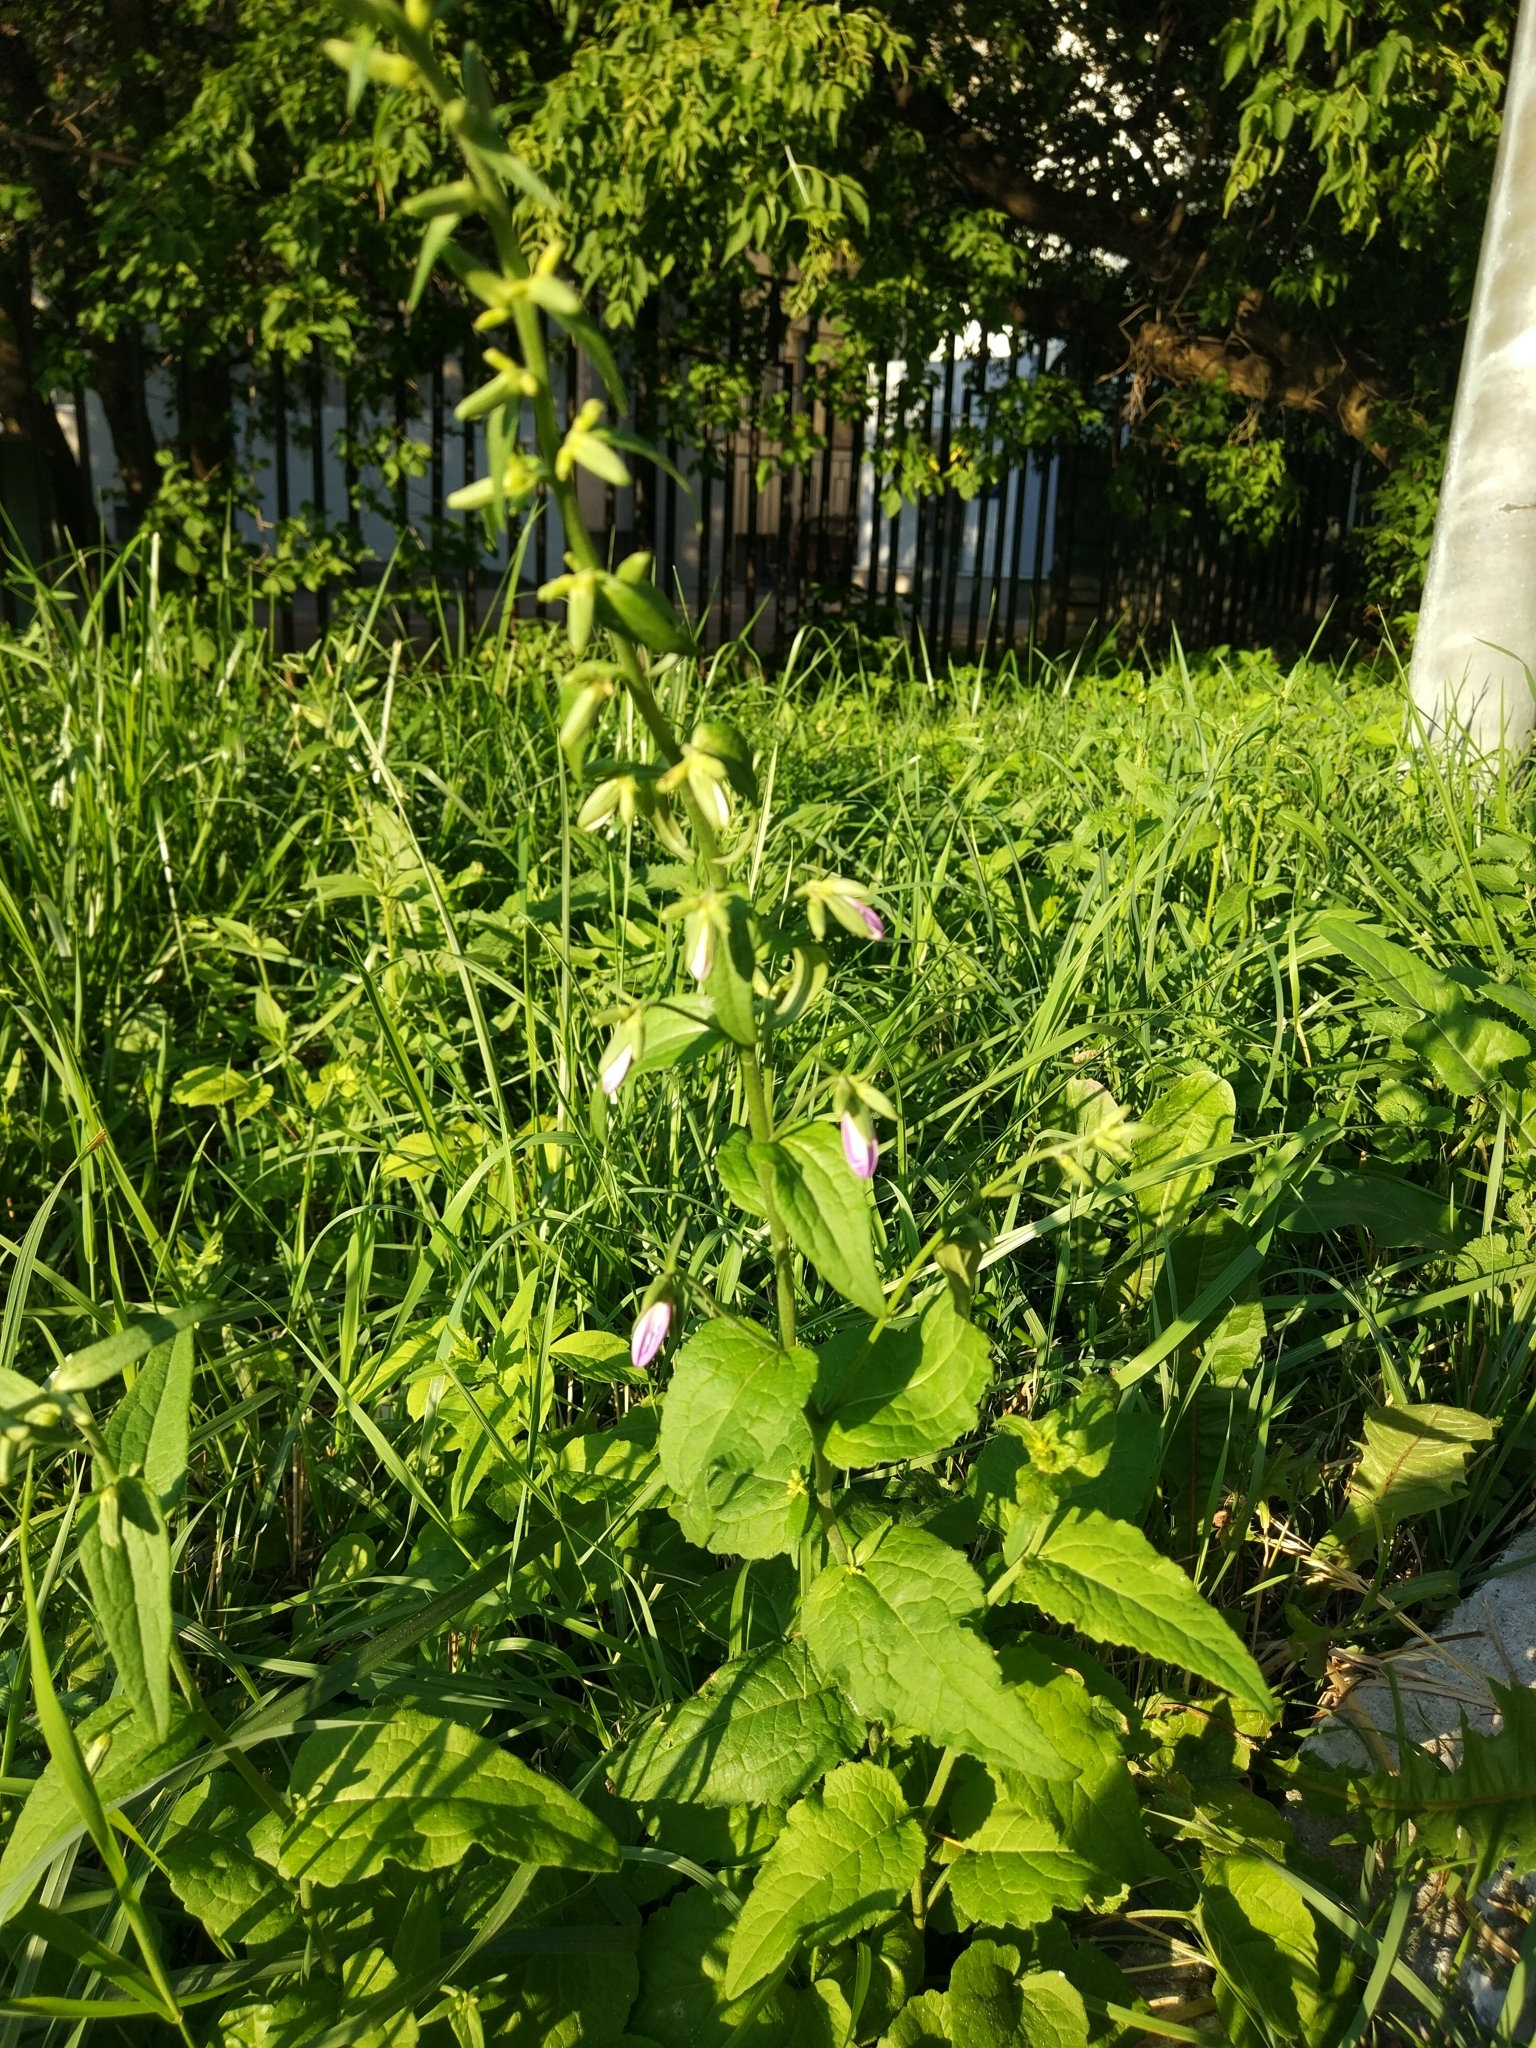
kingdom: Plantae
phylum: Tracheophyta
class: Magnoliopsida
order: Asterales
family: Campanulaceae
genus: Campanula
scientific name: Campanula rapunculoides
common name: Creeping bellflower
